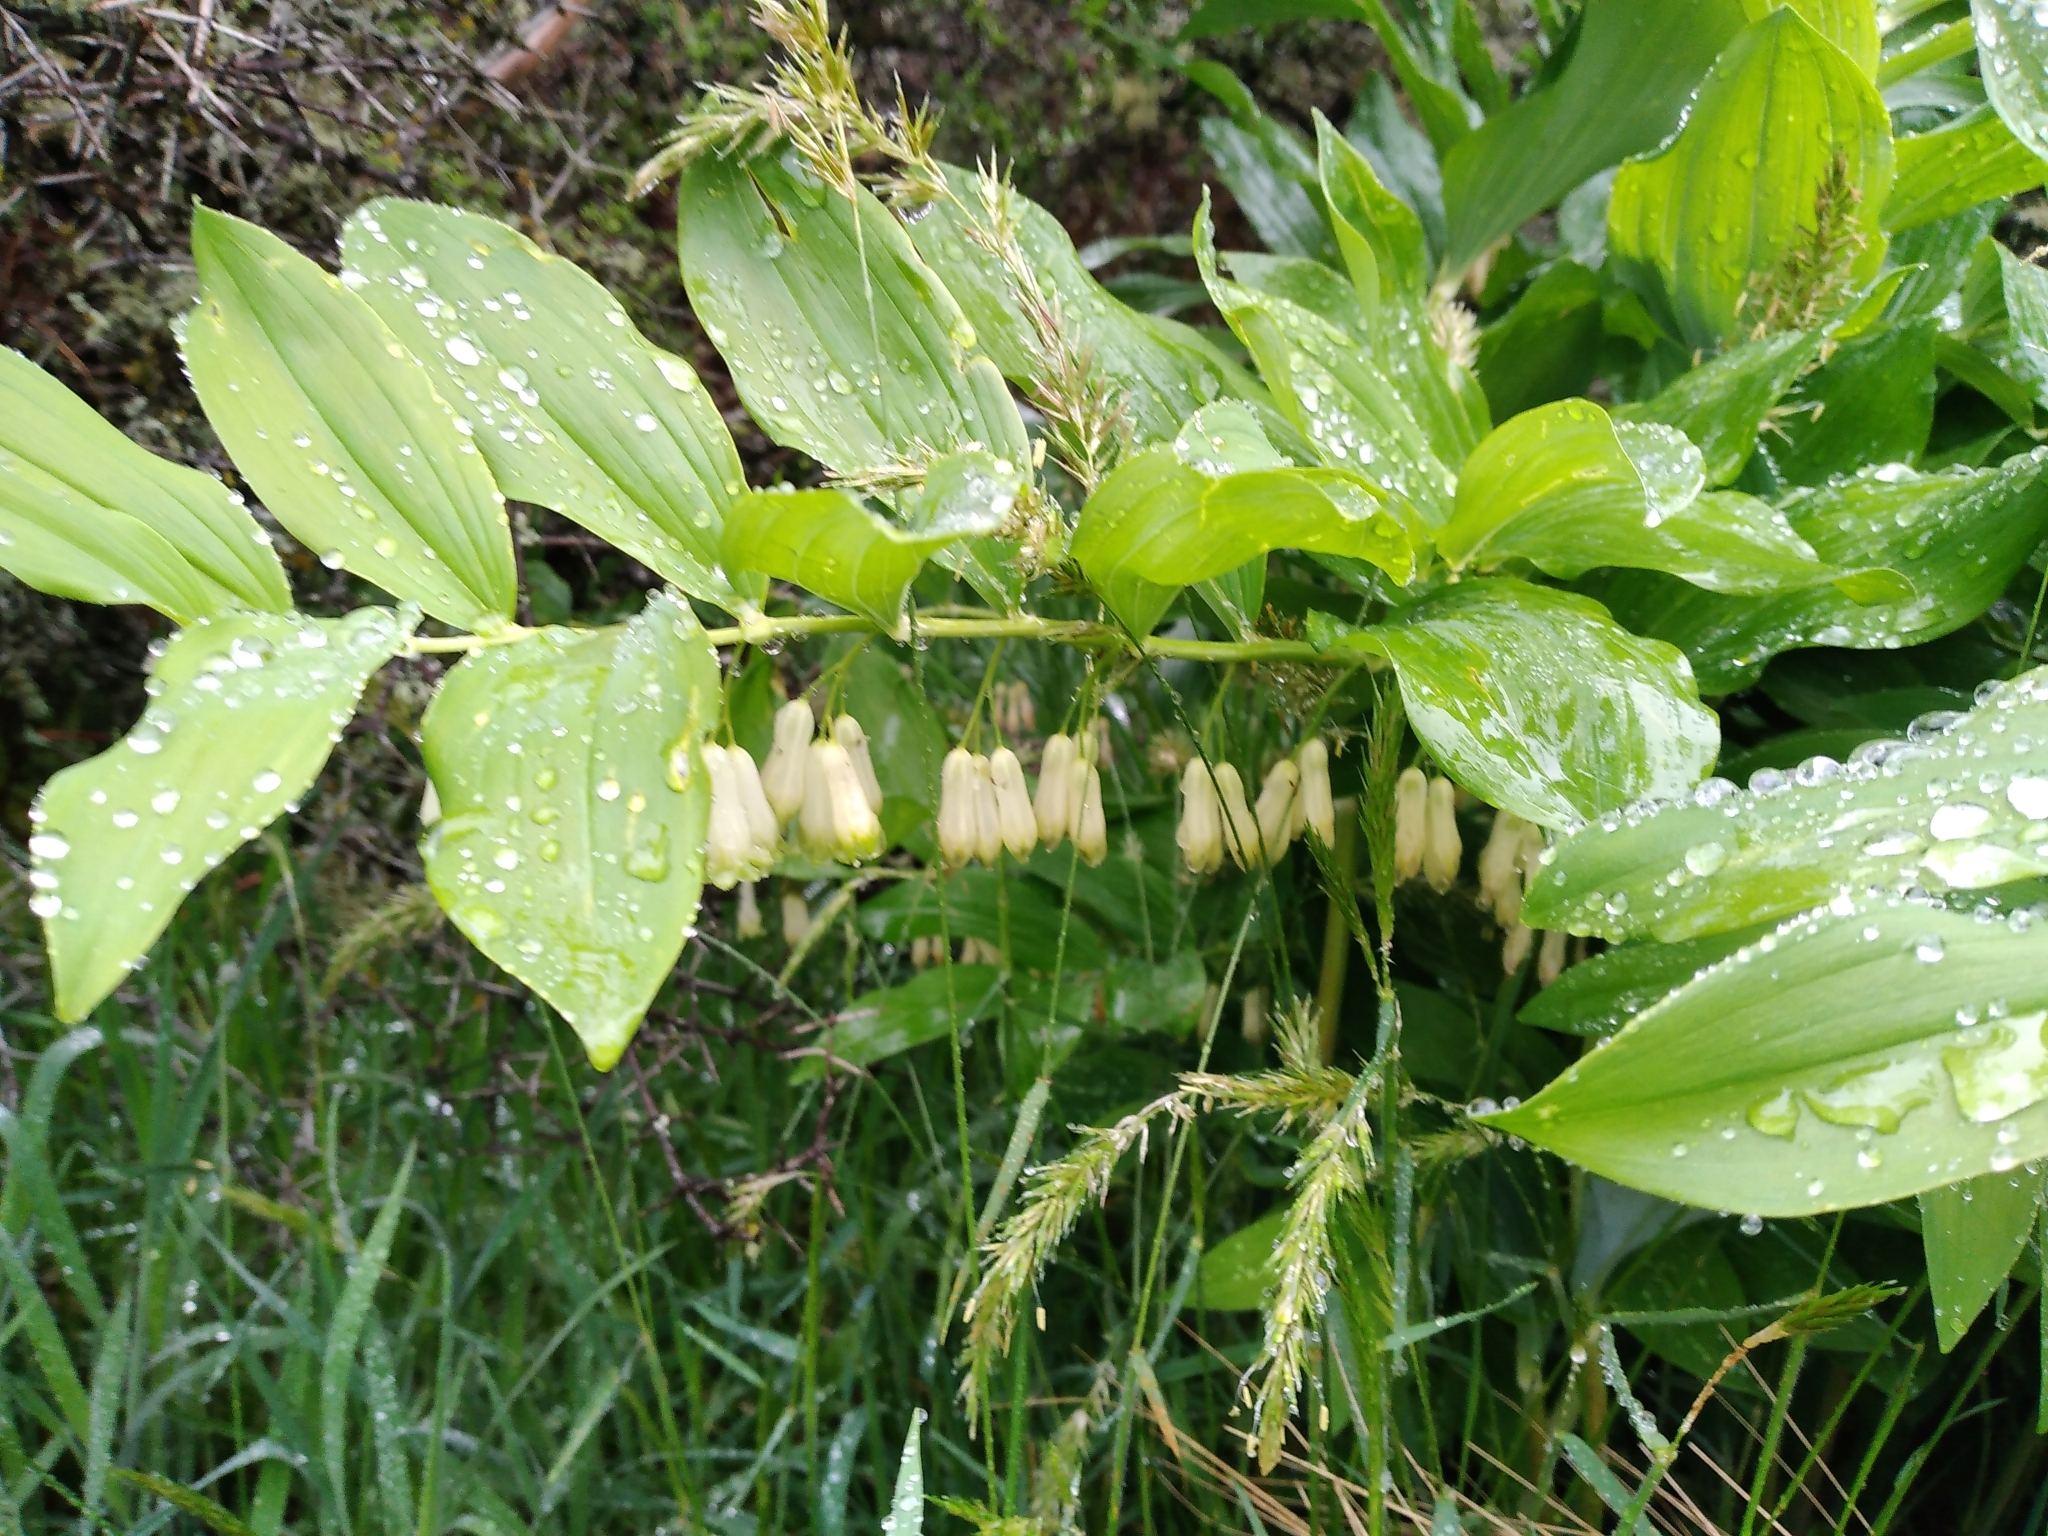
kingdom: Plantae
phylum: Tracheophyta
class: Liliopsida
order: Asparagales
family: Asparagaceae
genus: Polygonatum
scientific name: Polygonatum multiflorum
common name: Solomon's-seal
